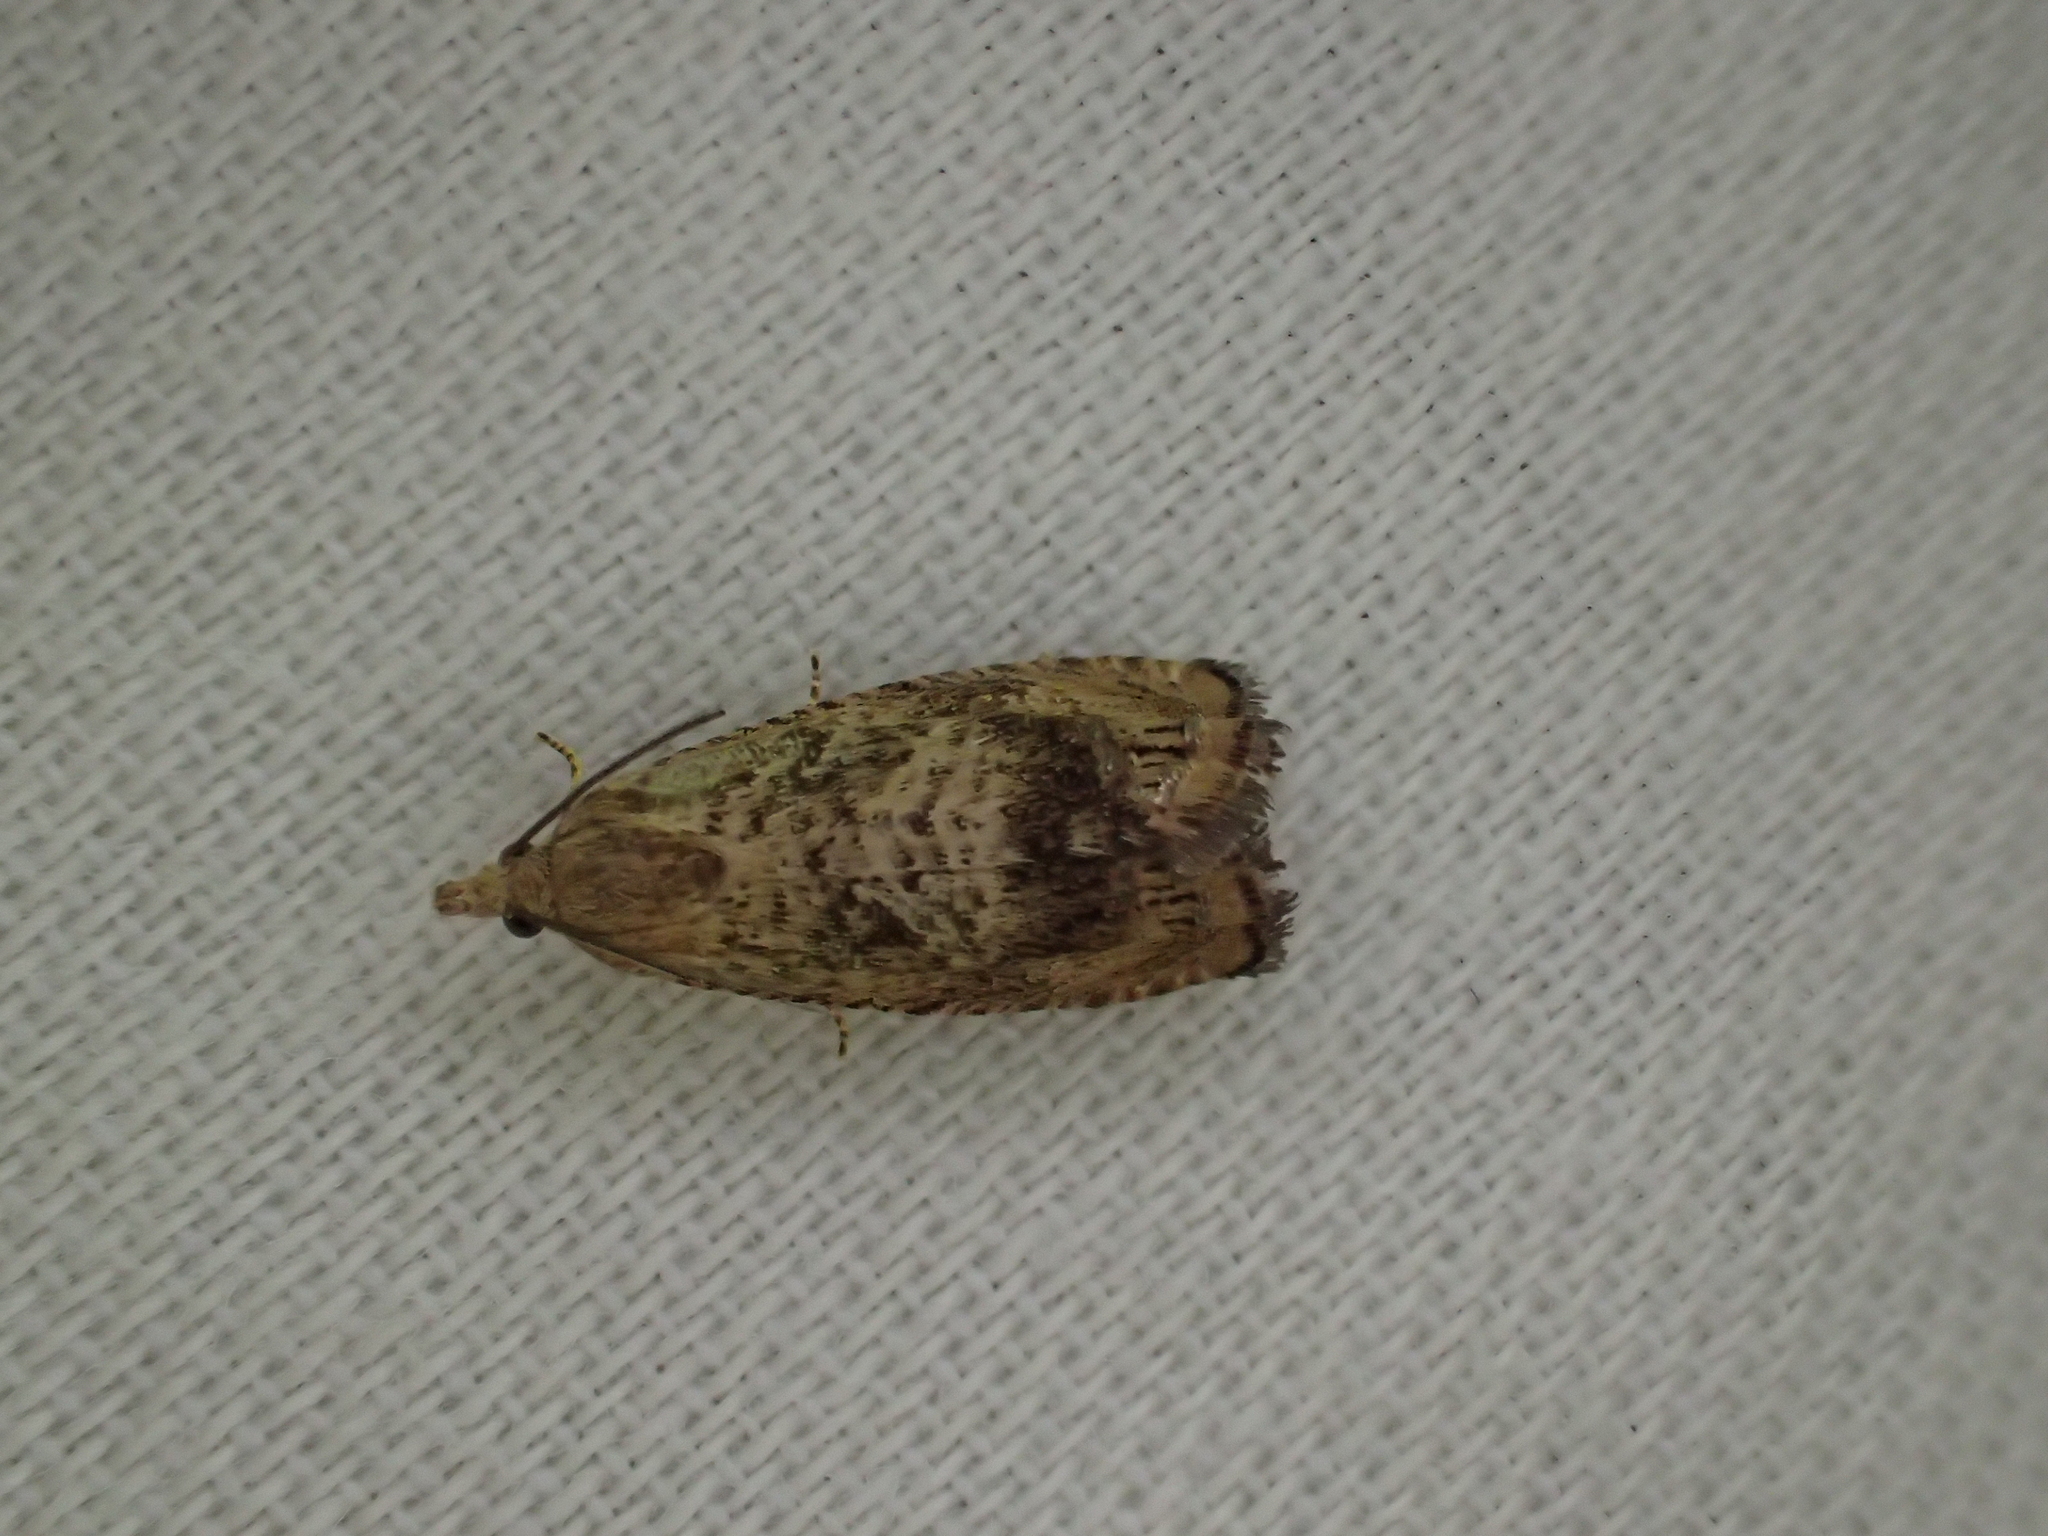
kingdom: Animalia
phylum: Arthropoda
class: Insecta
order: Lepidoptera
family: Tortricidae
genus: Cydia
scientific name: Cydia amplana
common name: Vagrant piercer
